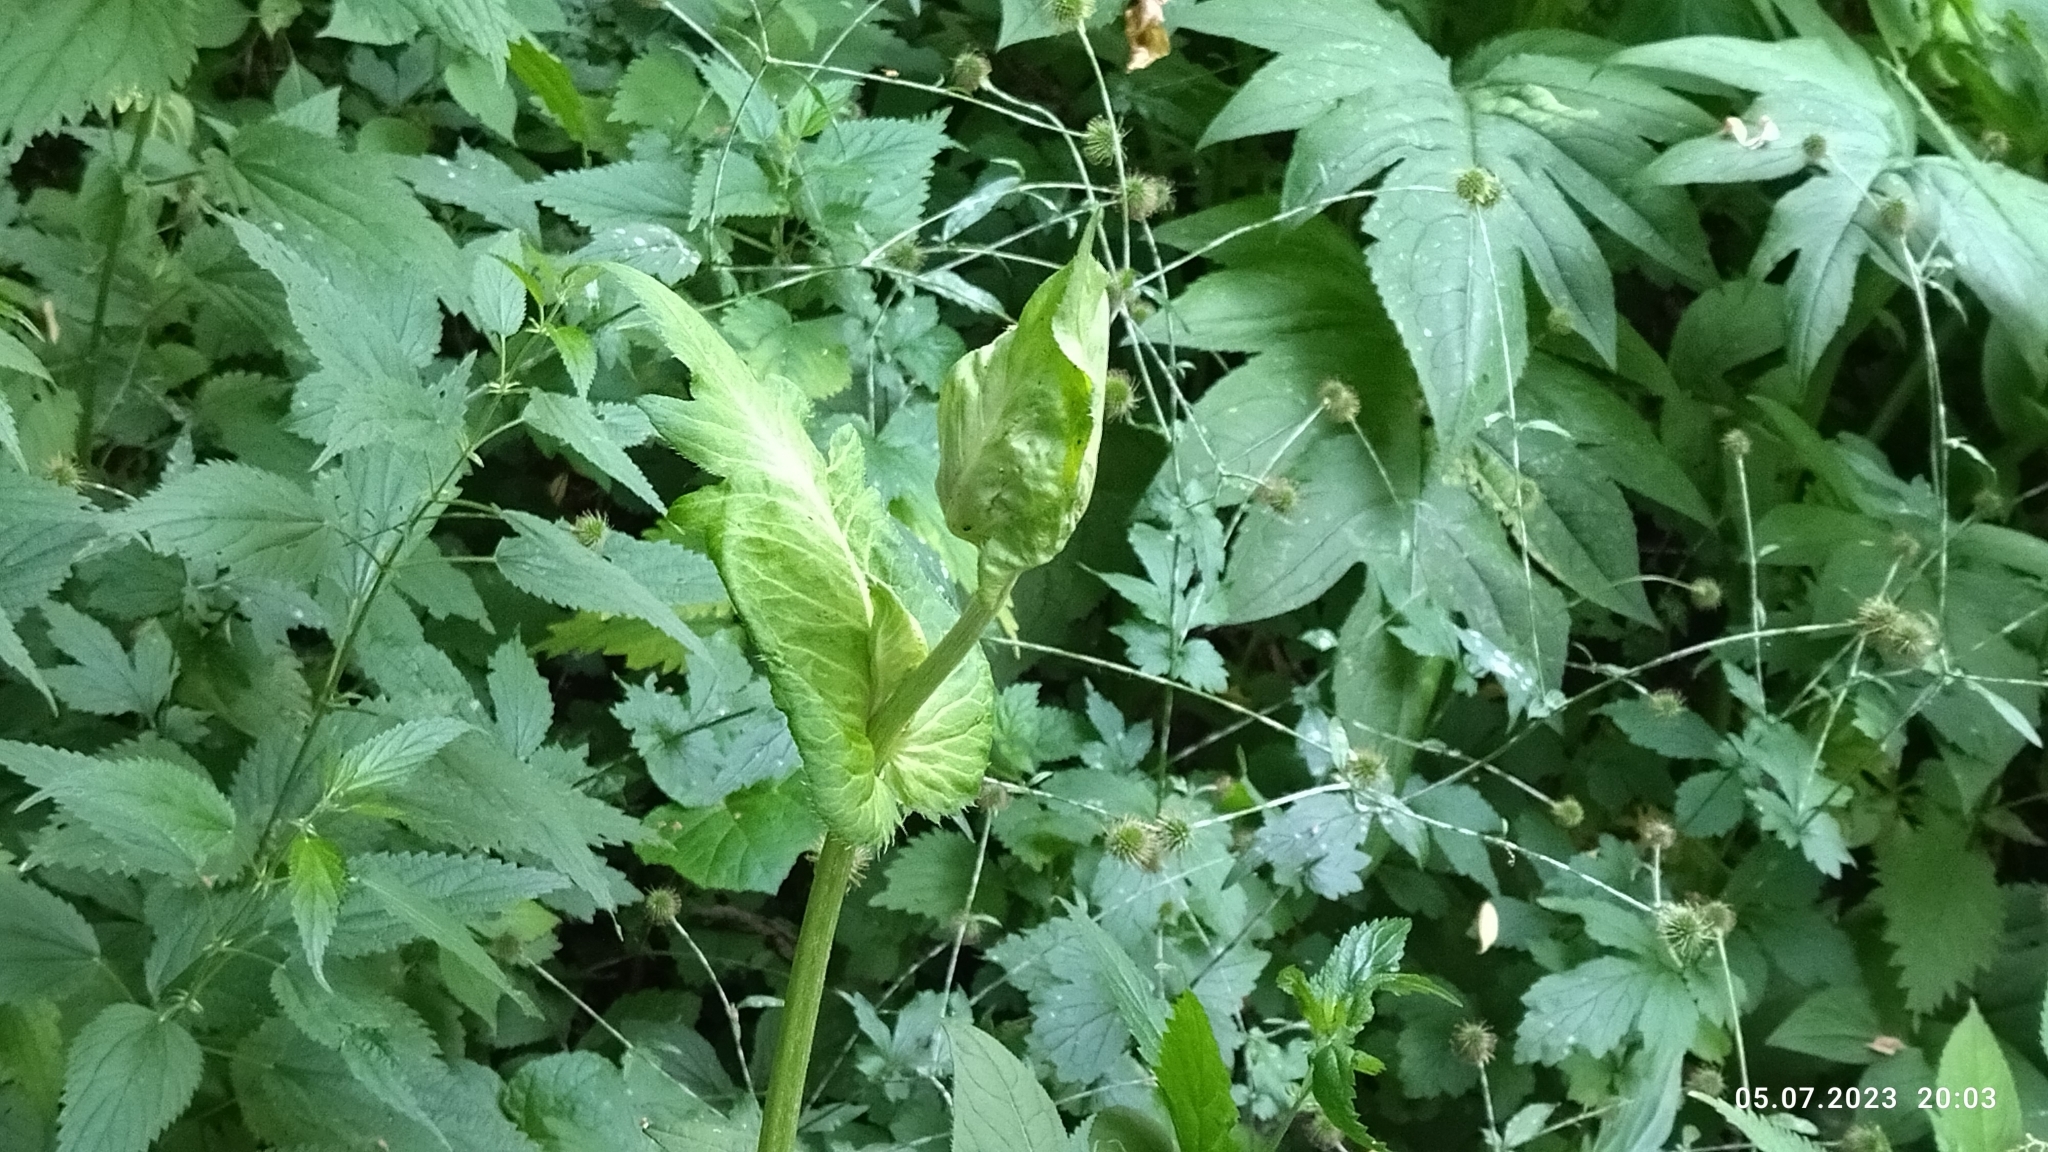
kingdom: Plantae
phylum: Tracheophyta
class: Magnoliopsida
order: Asterales
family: Asteraceae
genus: Cirsium
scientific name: Cirsium oleraceum
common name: Cabbage thistle
